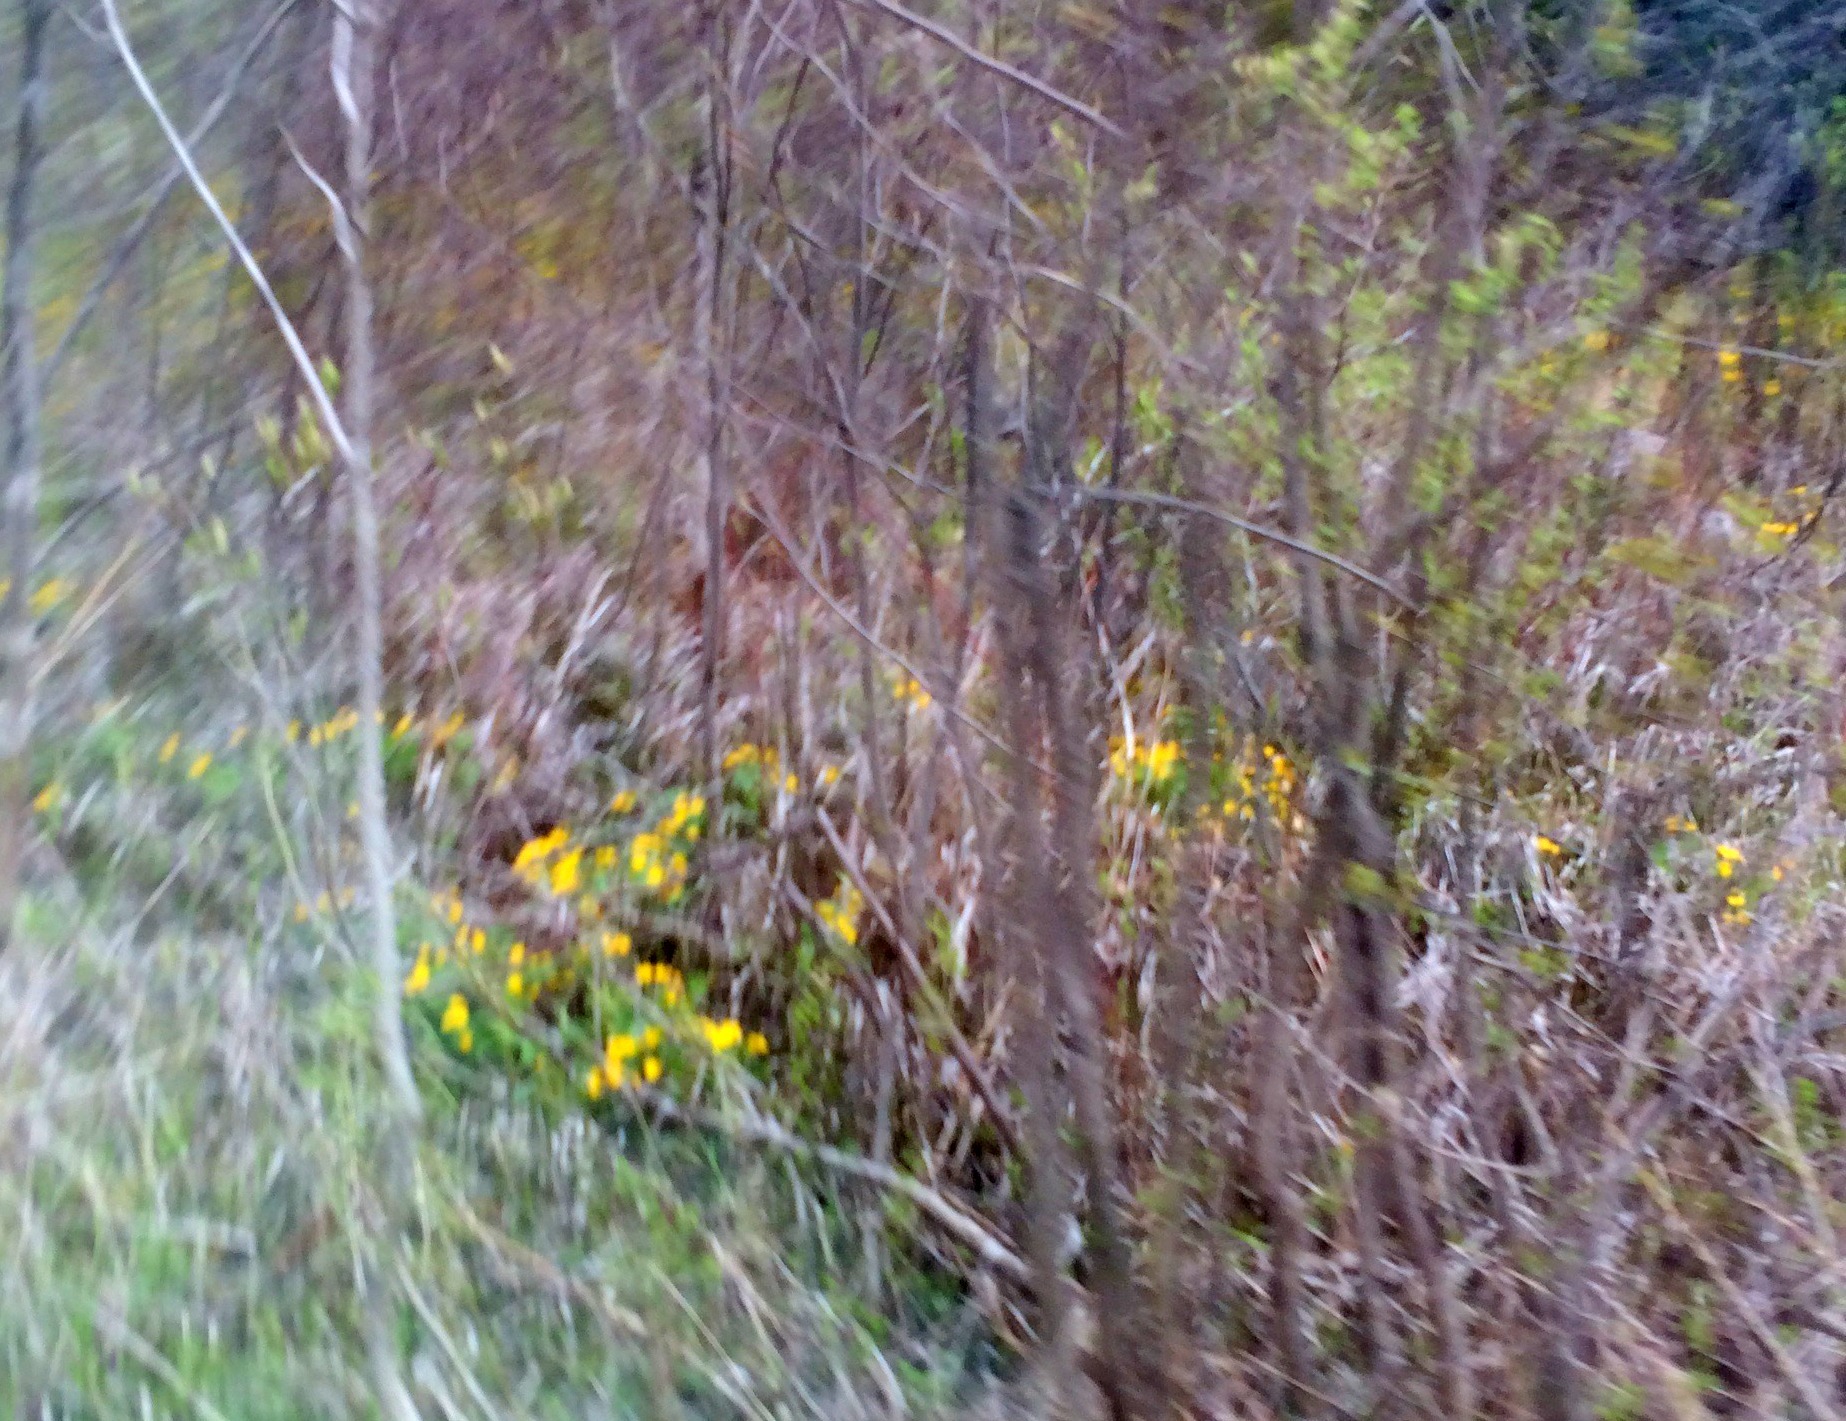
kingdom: Plantae
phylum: Tracheophyta
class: Magnoliopsida
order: Ranunculales
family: Ranunculaceae
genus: Caltha
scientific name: Caltha palustris
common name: Marsh marigold
